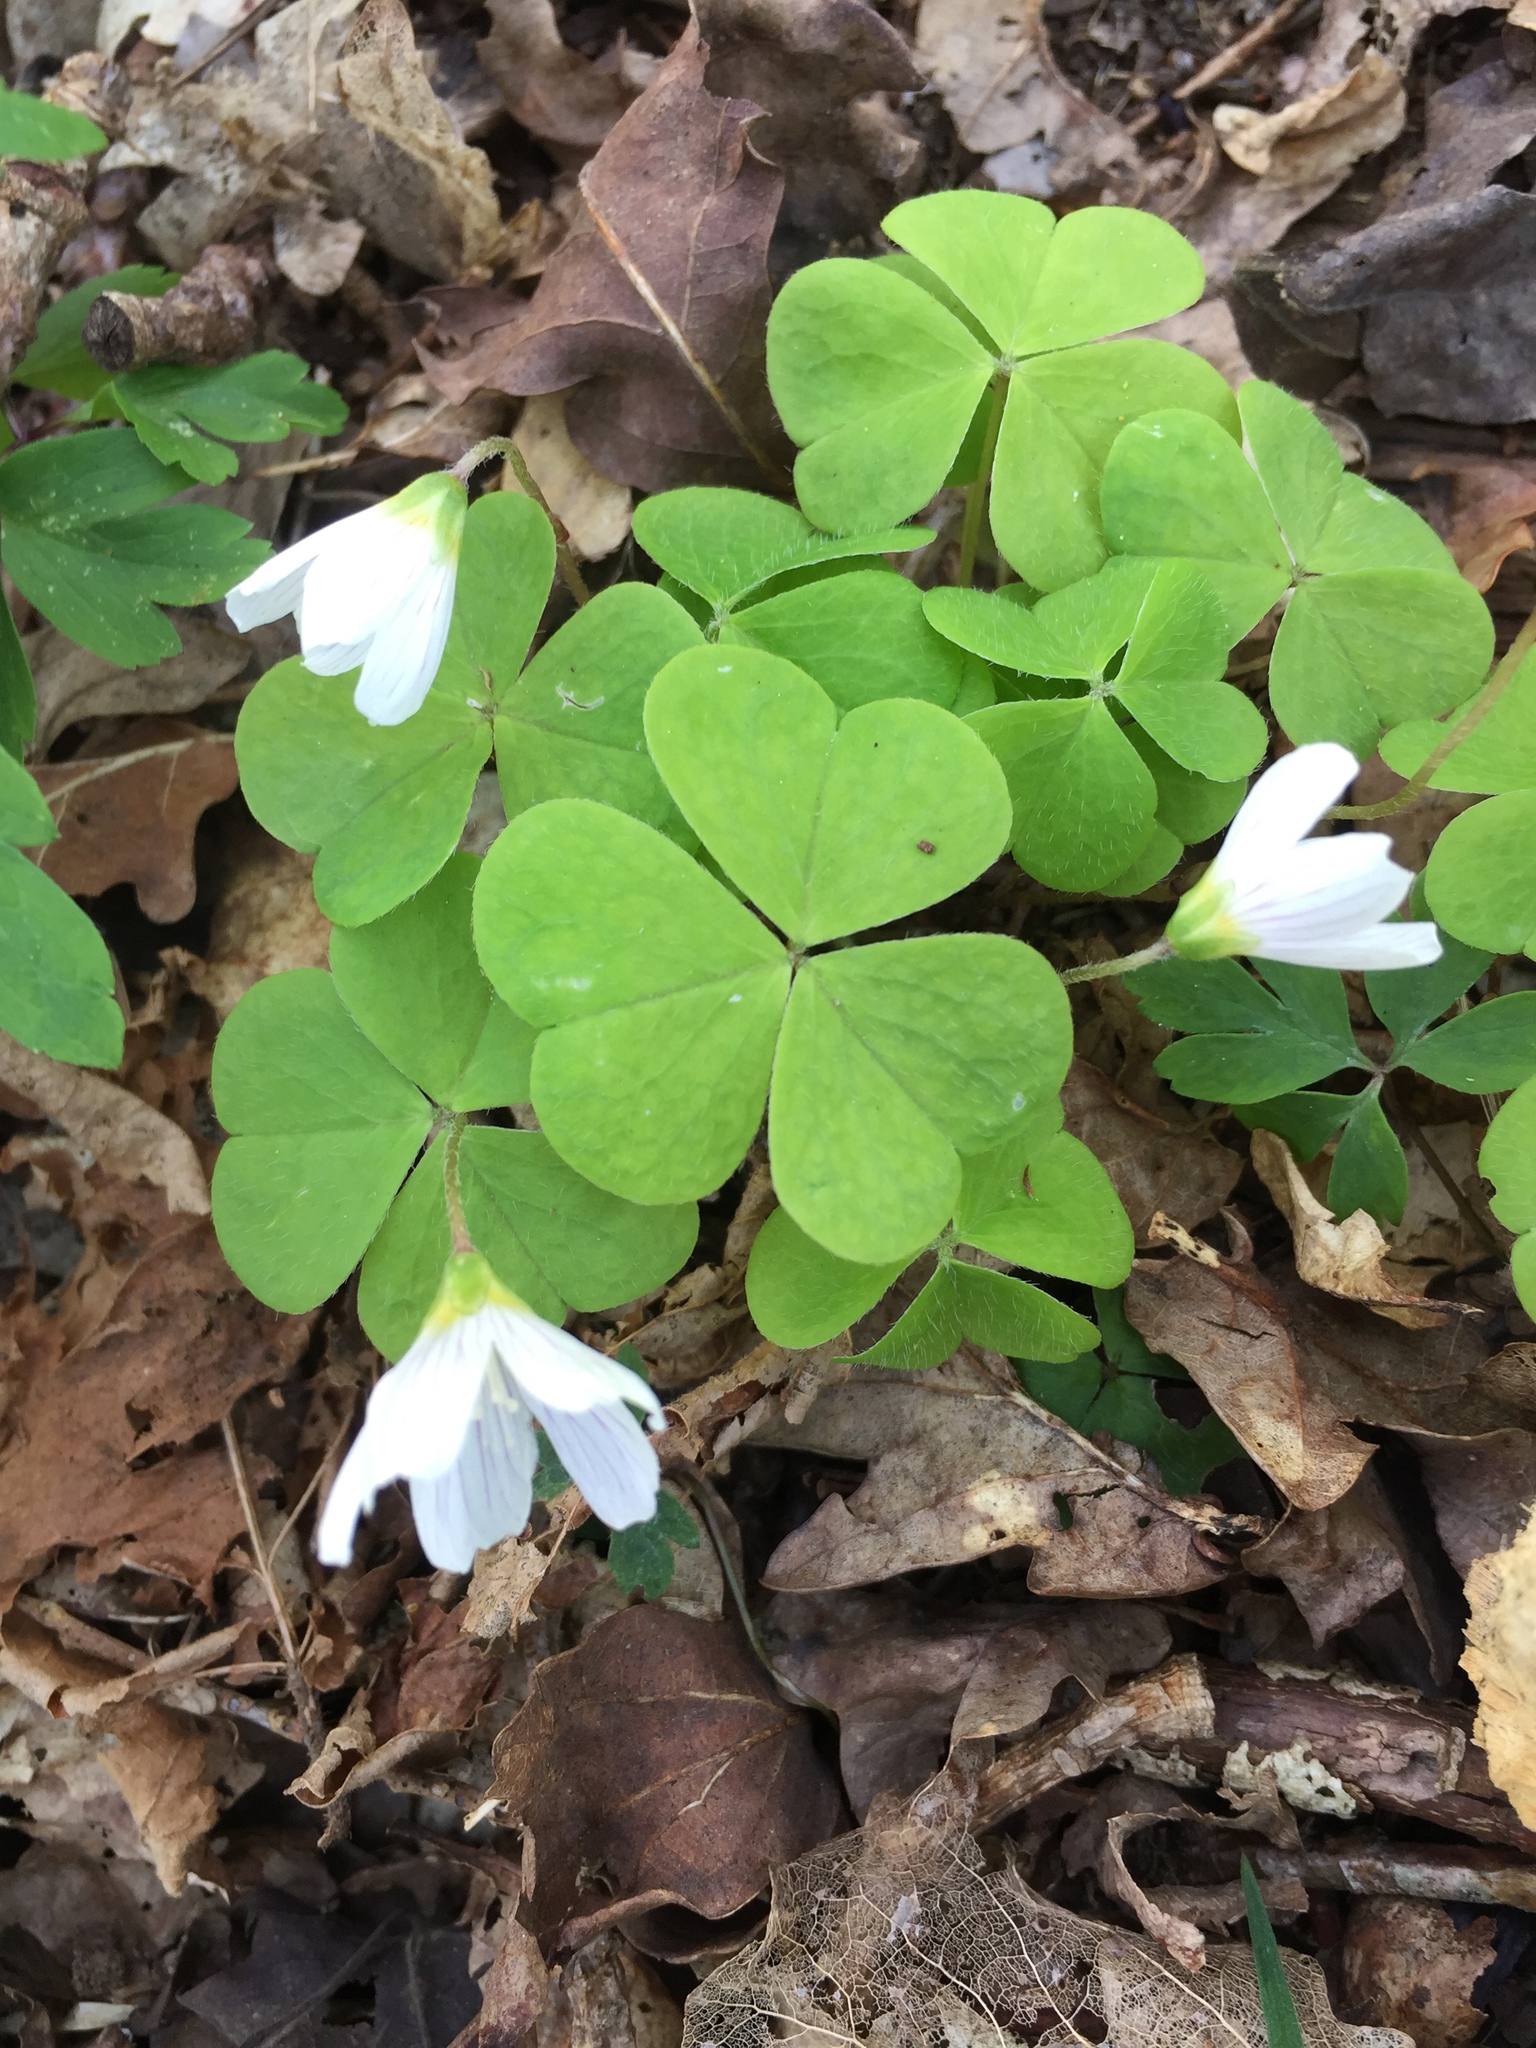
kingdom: Plantae
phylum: Tracheophyta
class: Magnoliopsida
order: Oxalidales
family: Oxalidaceae
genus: Oxalis
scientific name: Oxalis acetosella
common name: Wood-sorrel
